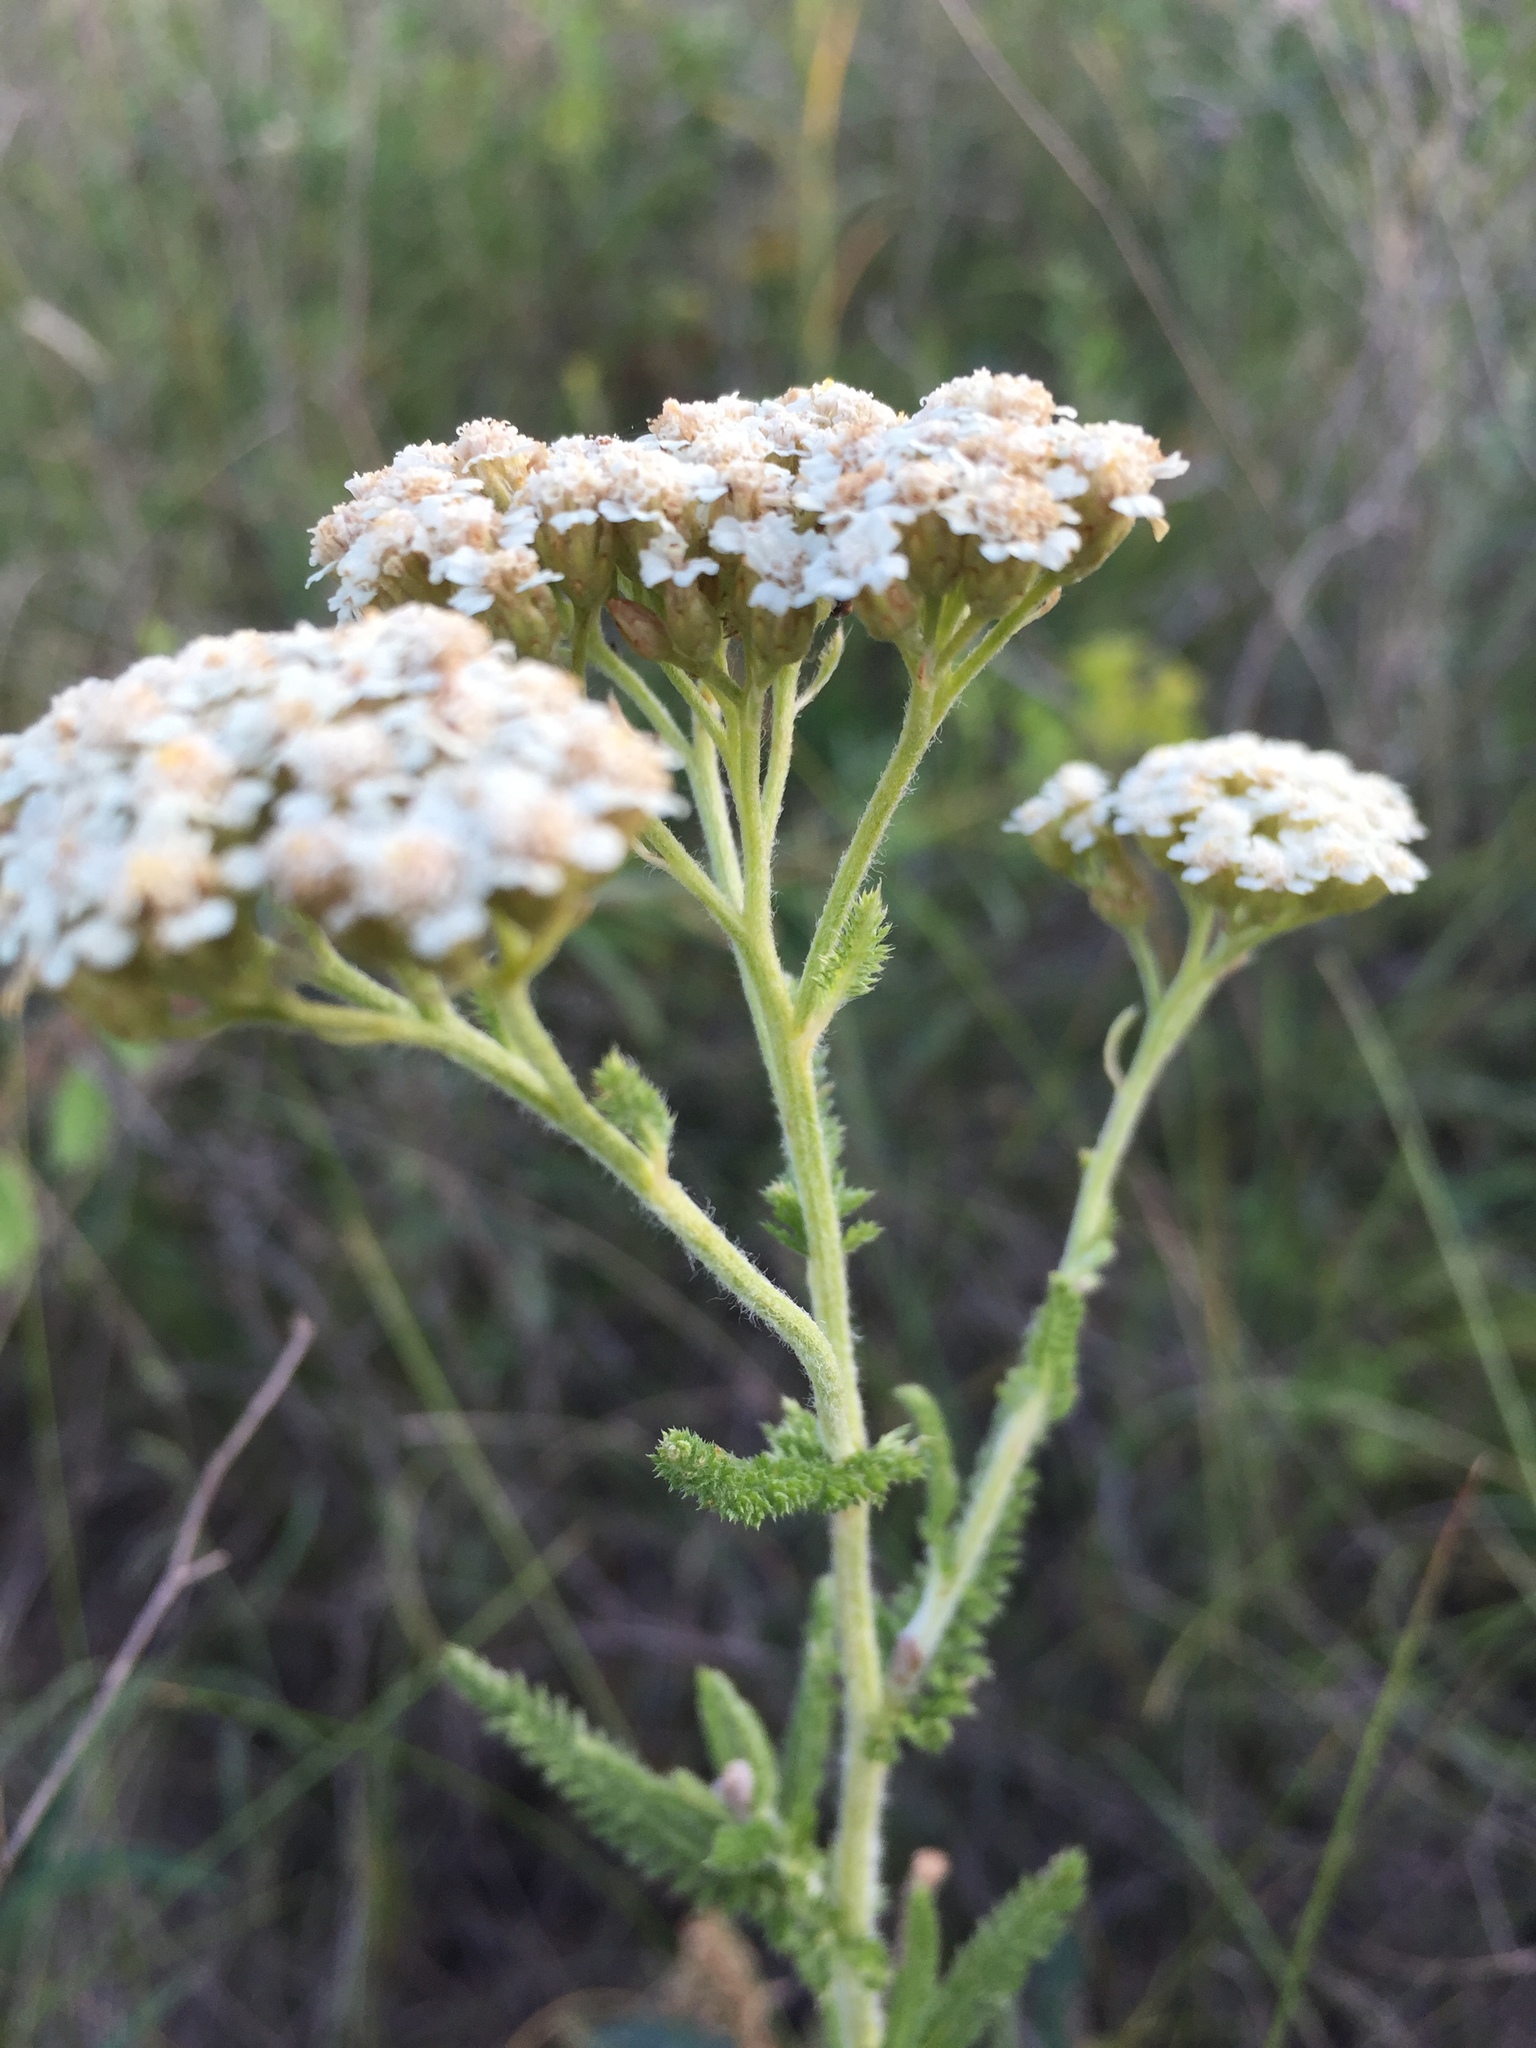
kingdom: Plantae
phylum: Tracheophyta
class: Magnoliopsida
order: Asterales
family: Asteraceae
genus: Achillea
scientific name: Achillea setacea
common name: Bristly yarrow
